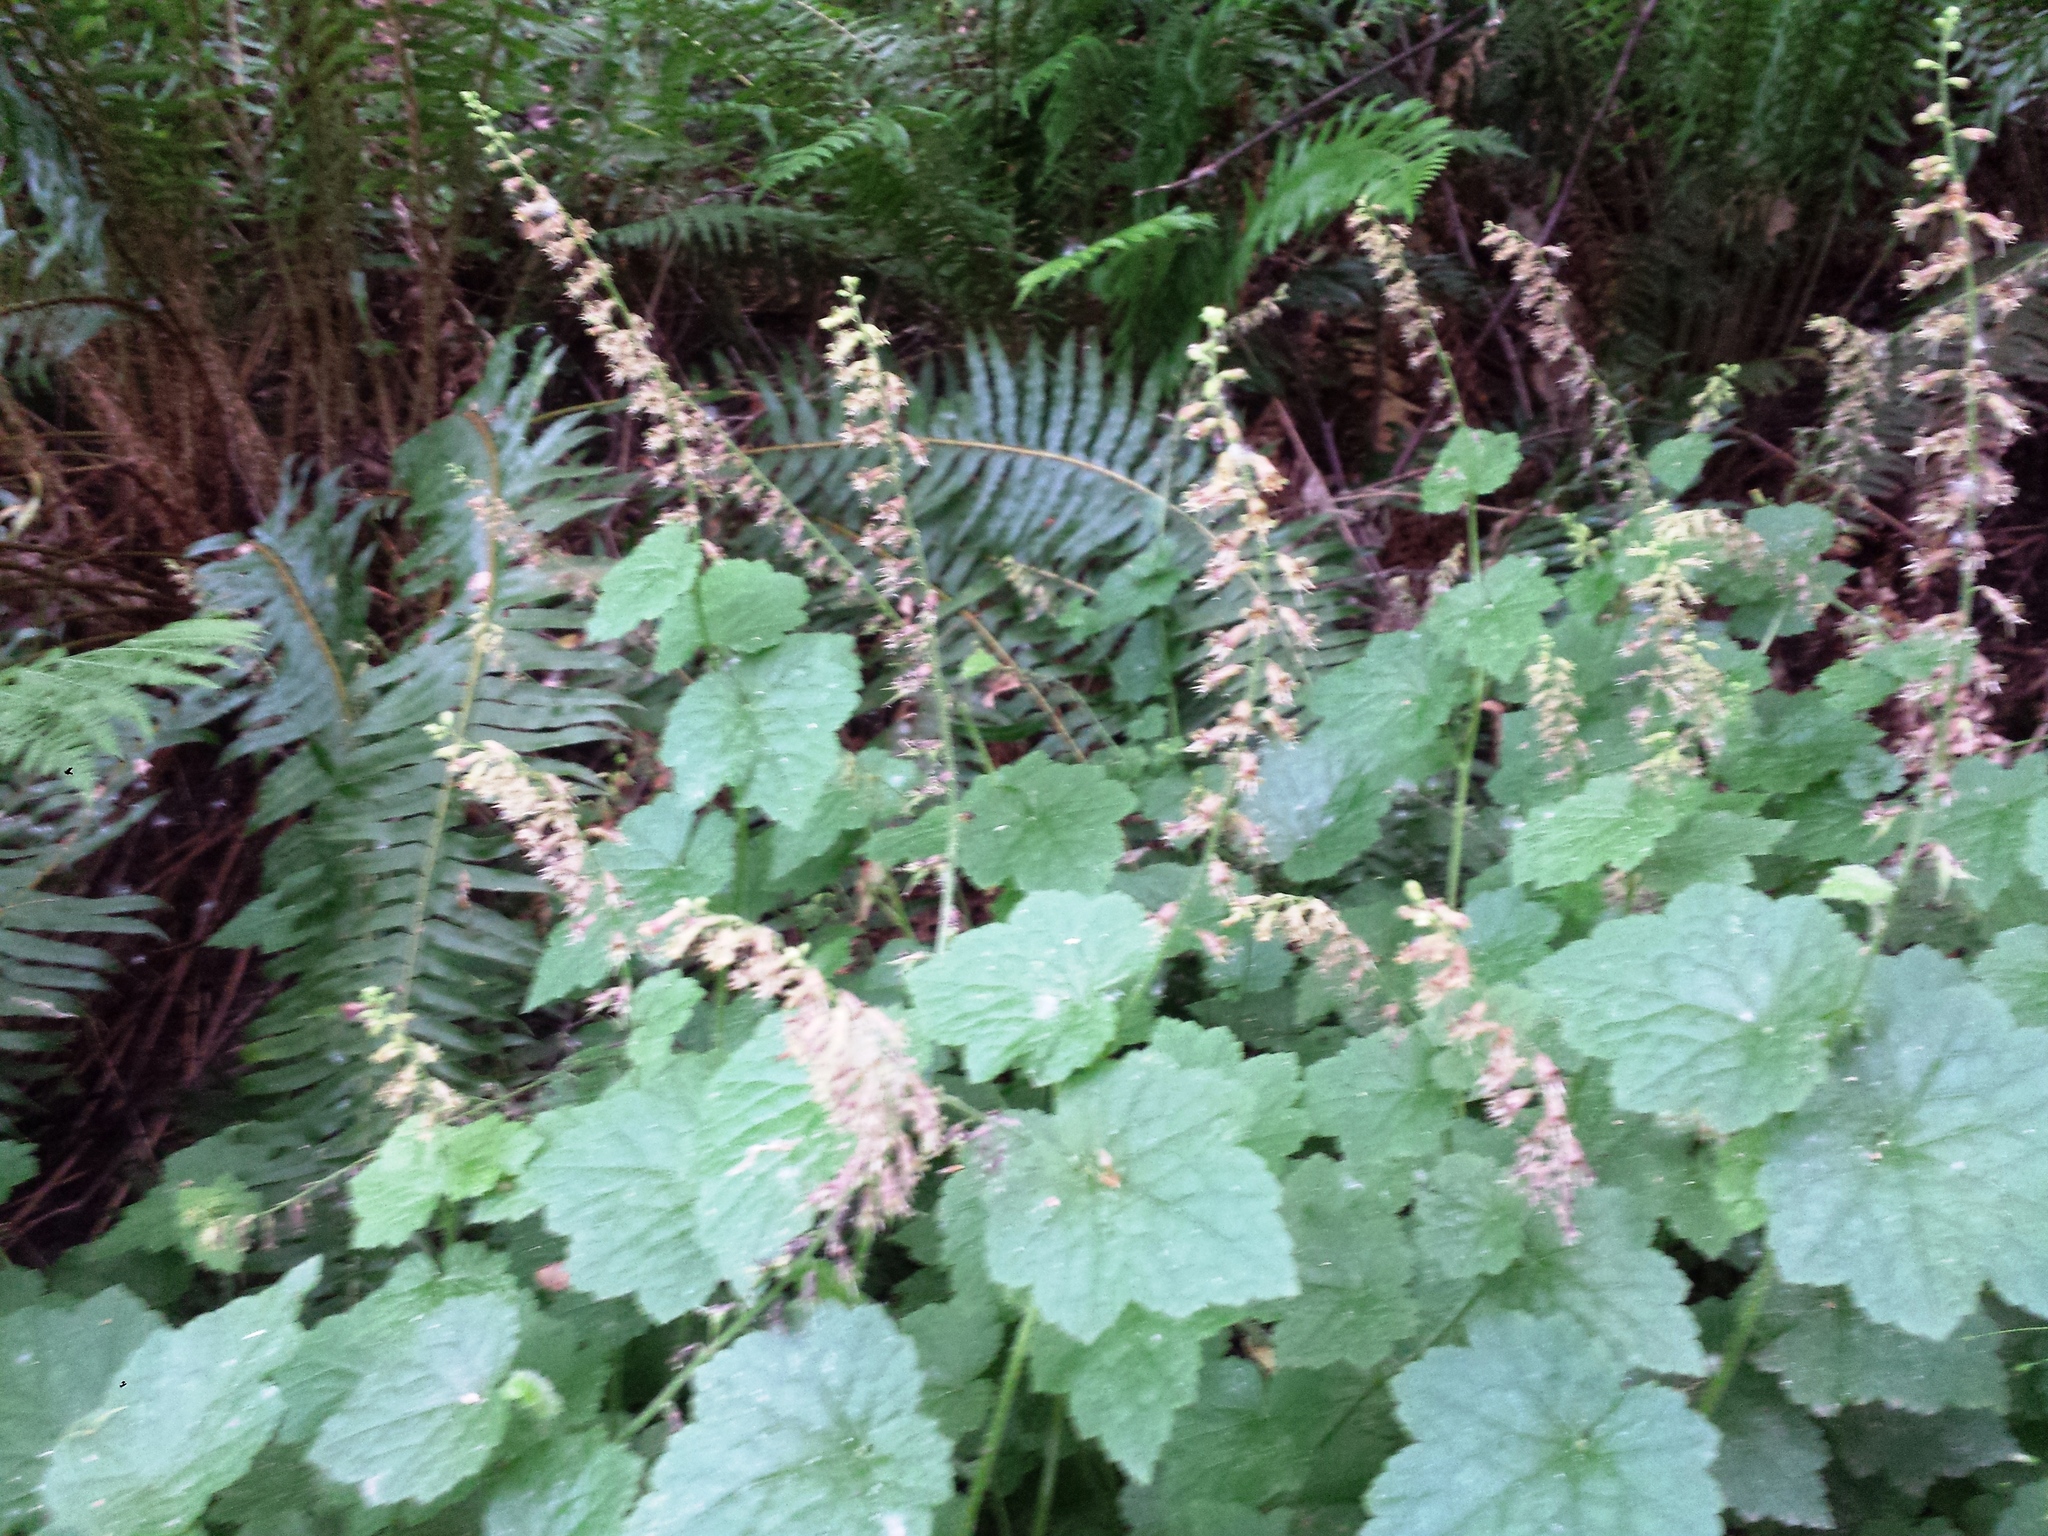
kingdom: Plantae
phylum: Tracheophyta
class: Magnoliopsida
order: Saxifragales
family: Saxifragaceae
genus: Tolmiea
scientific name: Tolmiea menziesii
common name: Pick-a-back-plant
